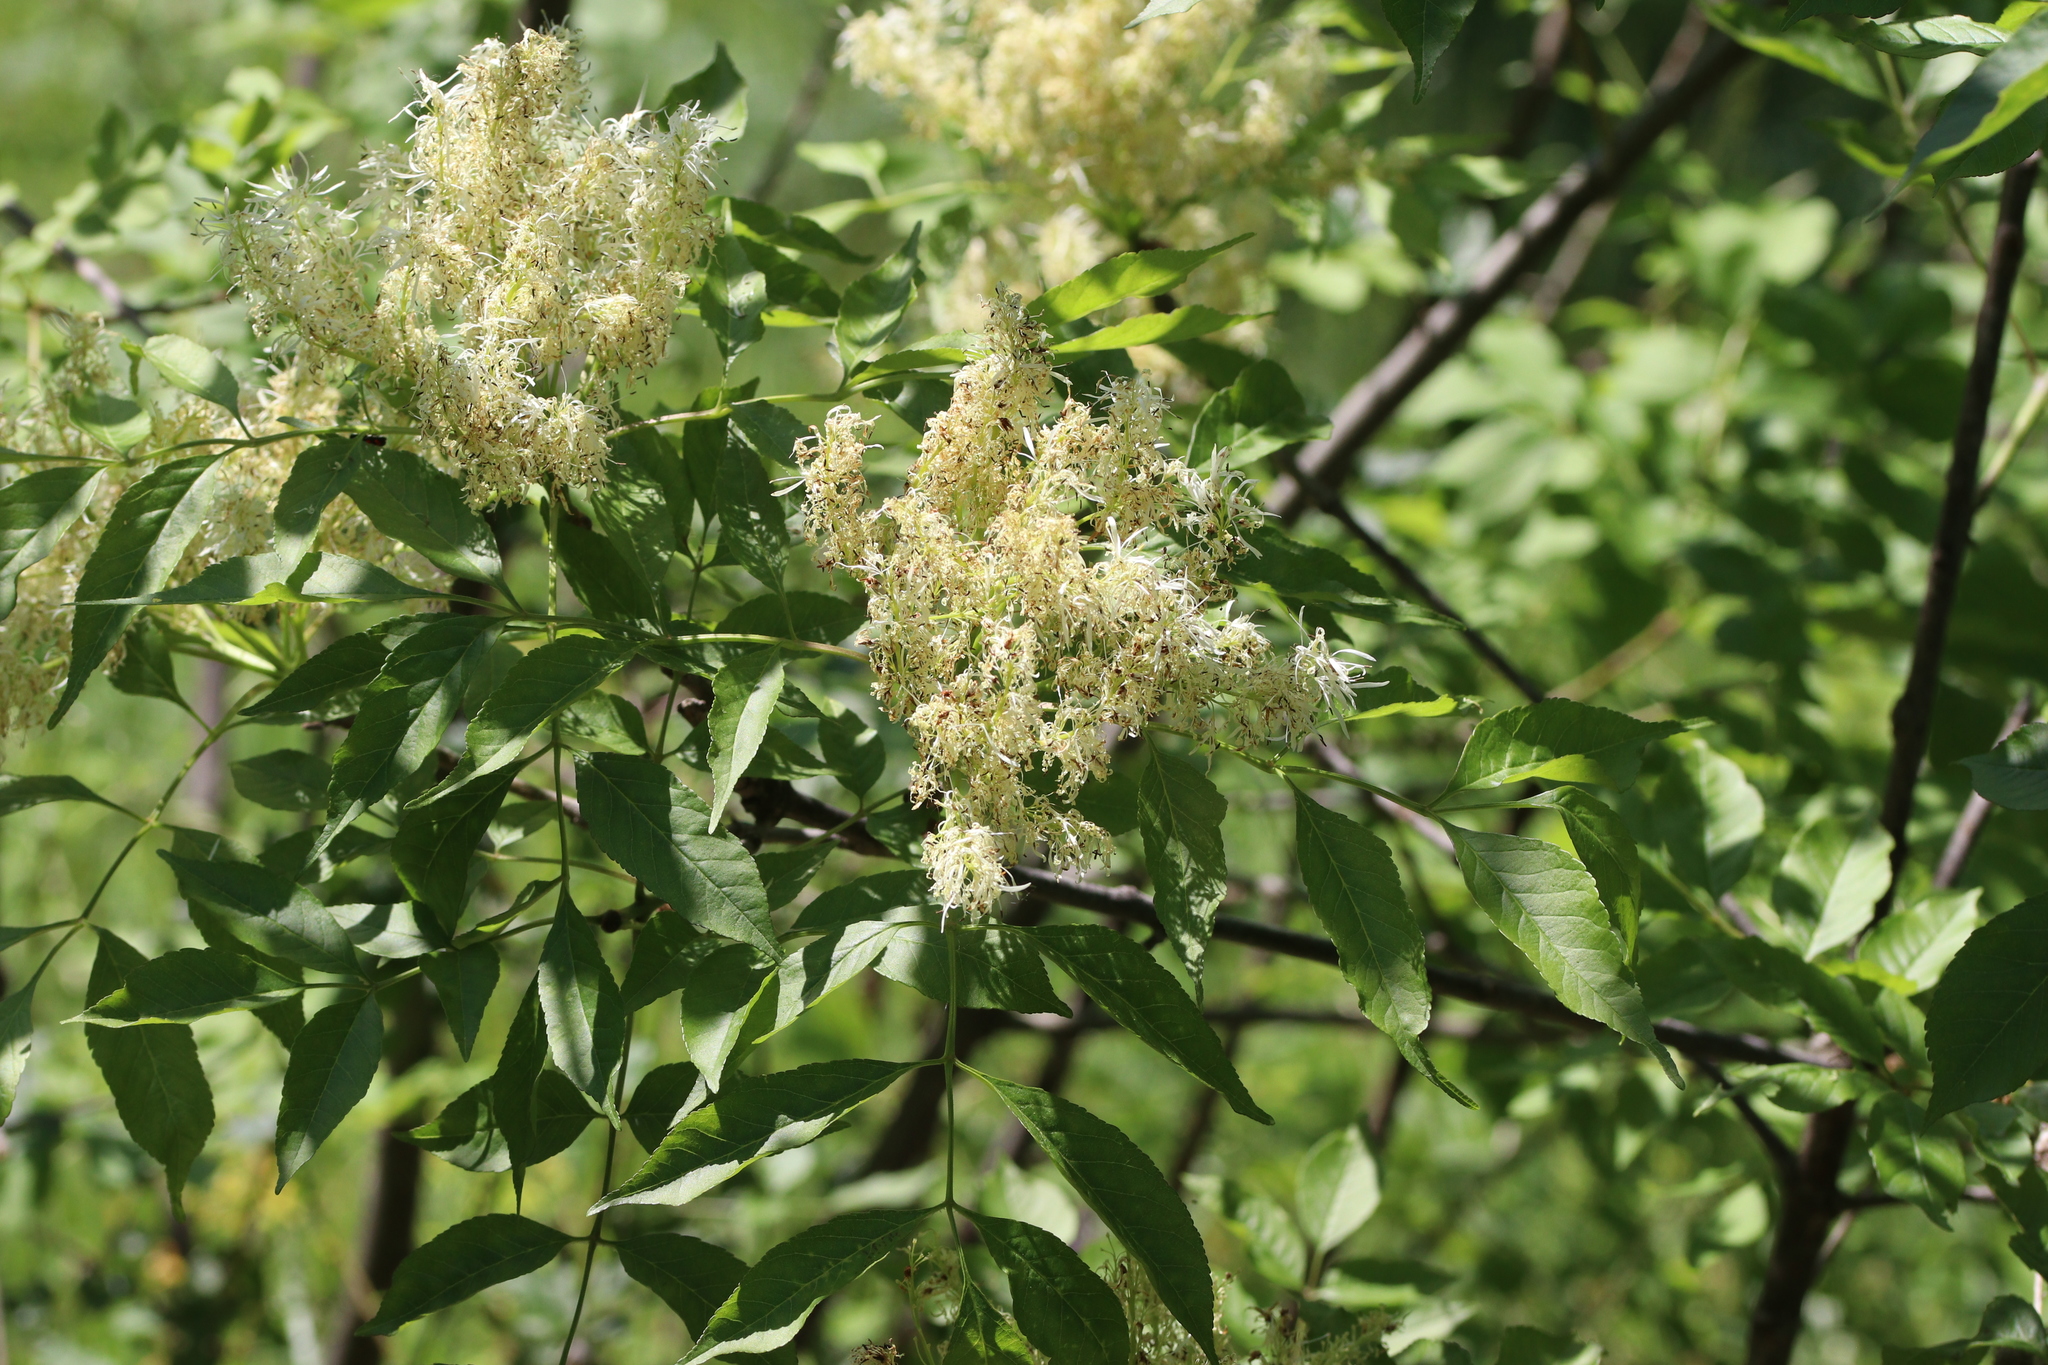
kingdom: Plantae
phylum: Tracheophyta
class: Magnoliopsida
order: Lamiales
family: Oleaceae
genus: Fraxinus
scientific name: Fraxinus ornus
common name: Manna ash
